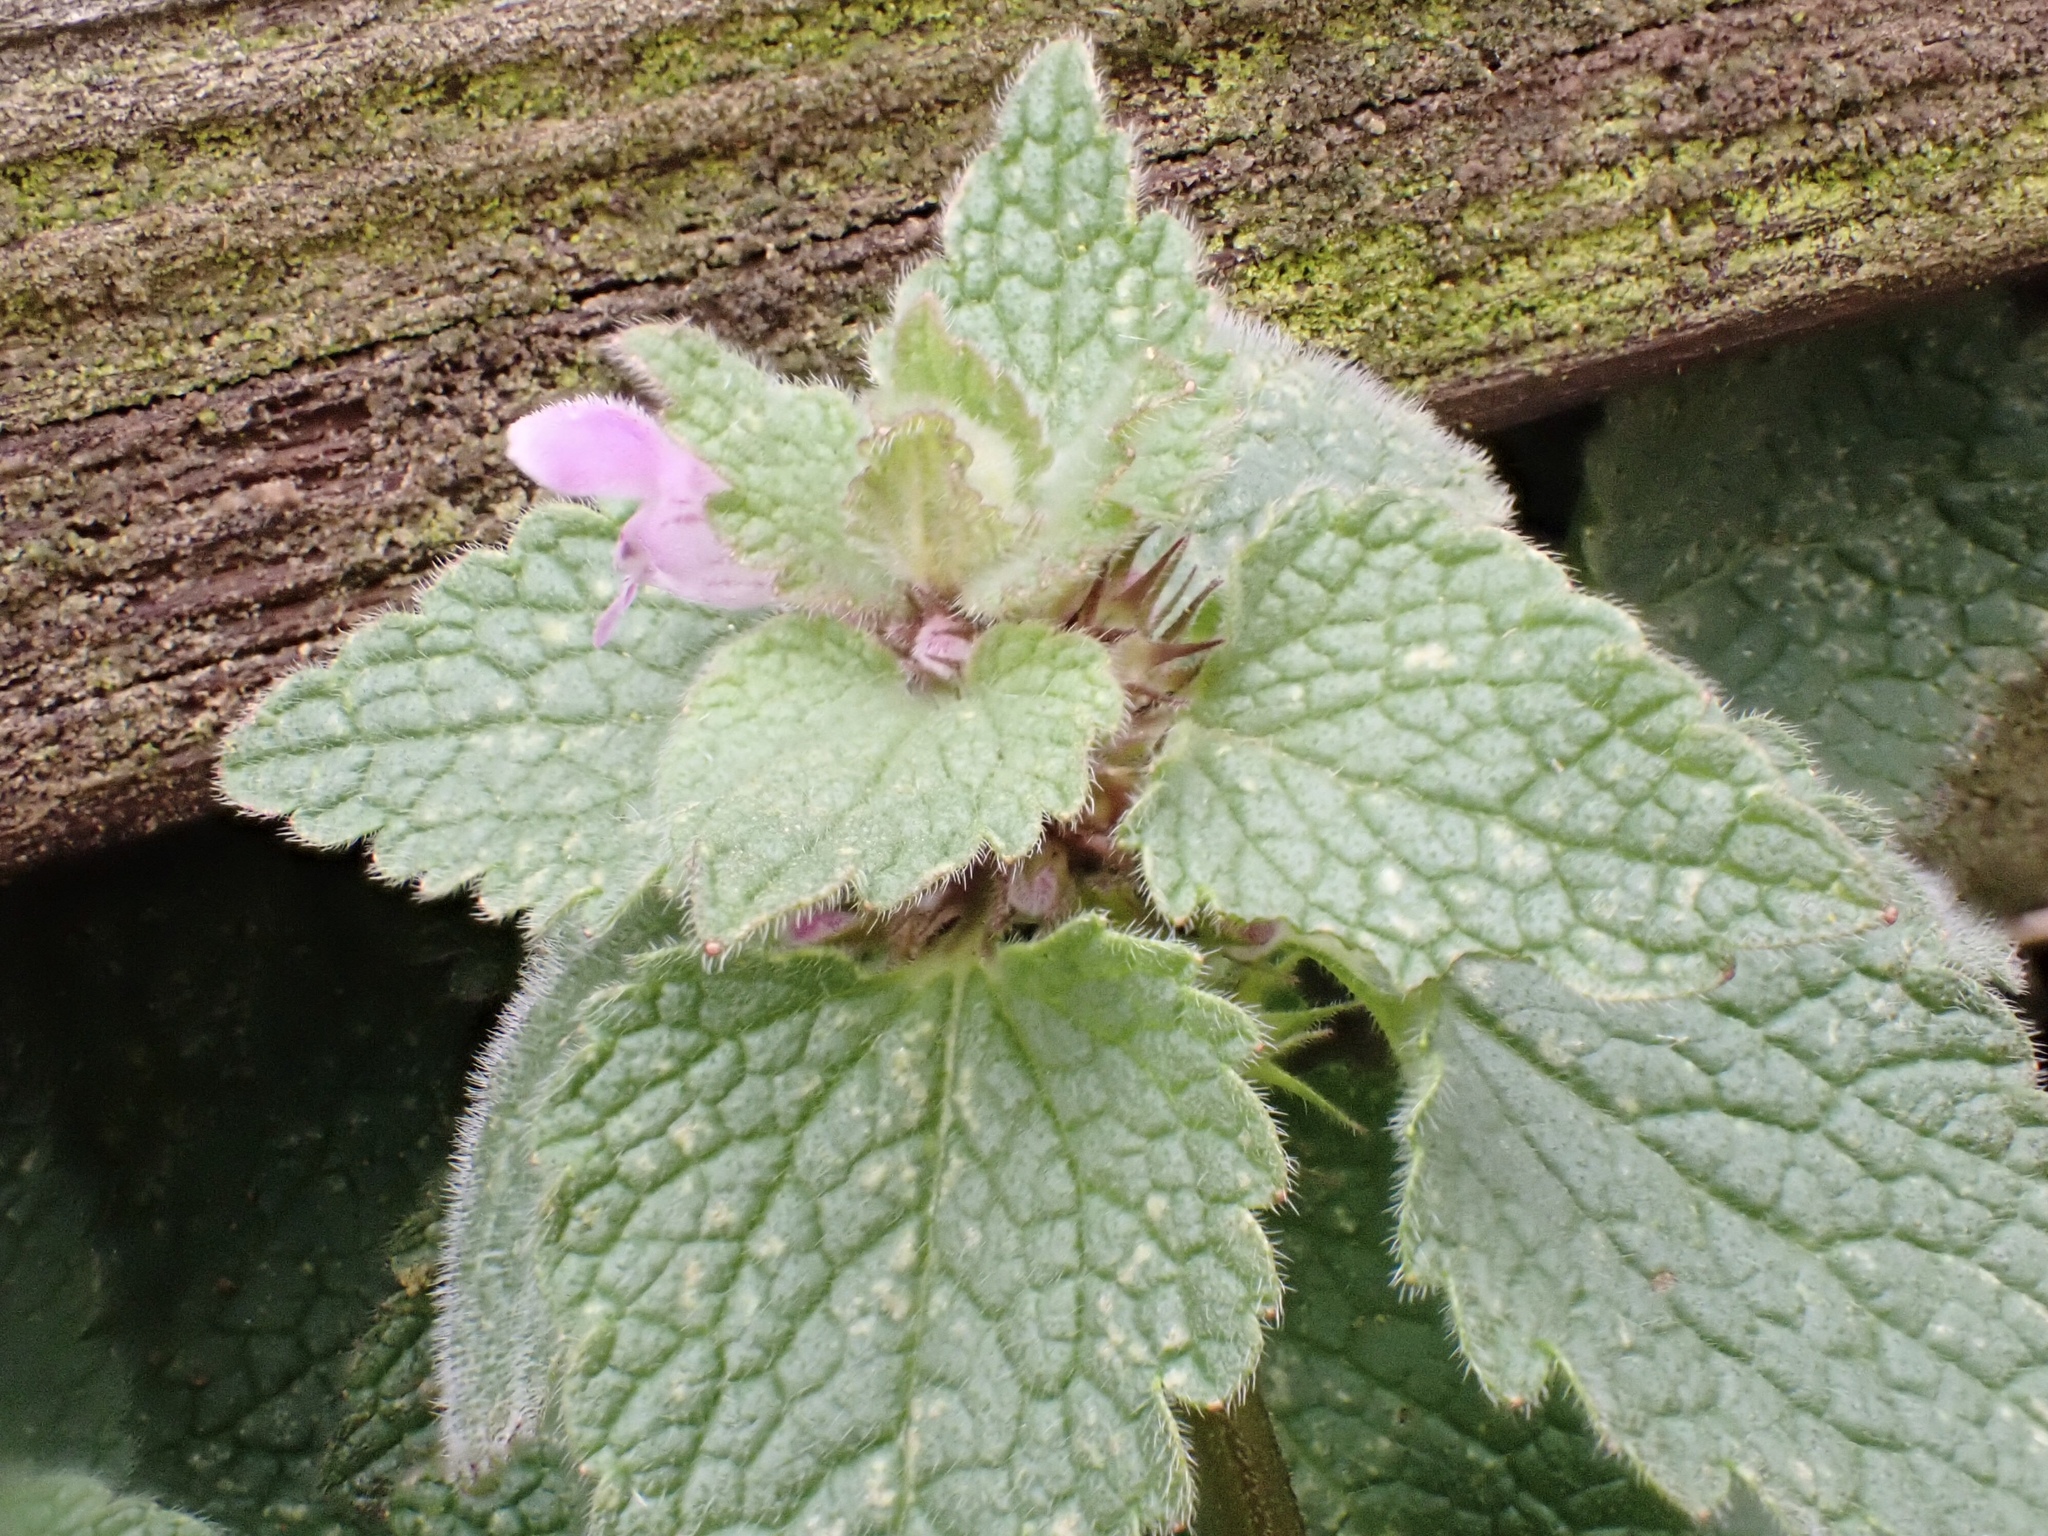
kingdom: Plantae
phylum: Tracheophyta
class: Magnoliopsida
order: Lamiales
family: Lamiaceae
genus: Lamium
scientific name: Lamium purpureum
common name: Red dead-nettle
